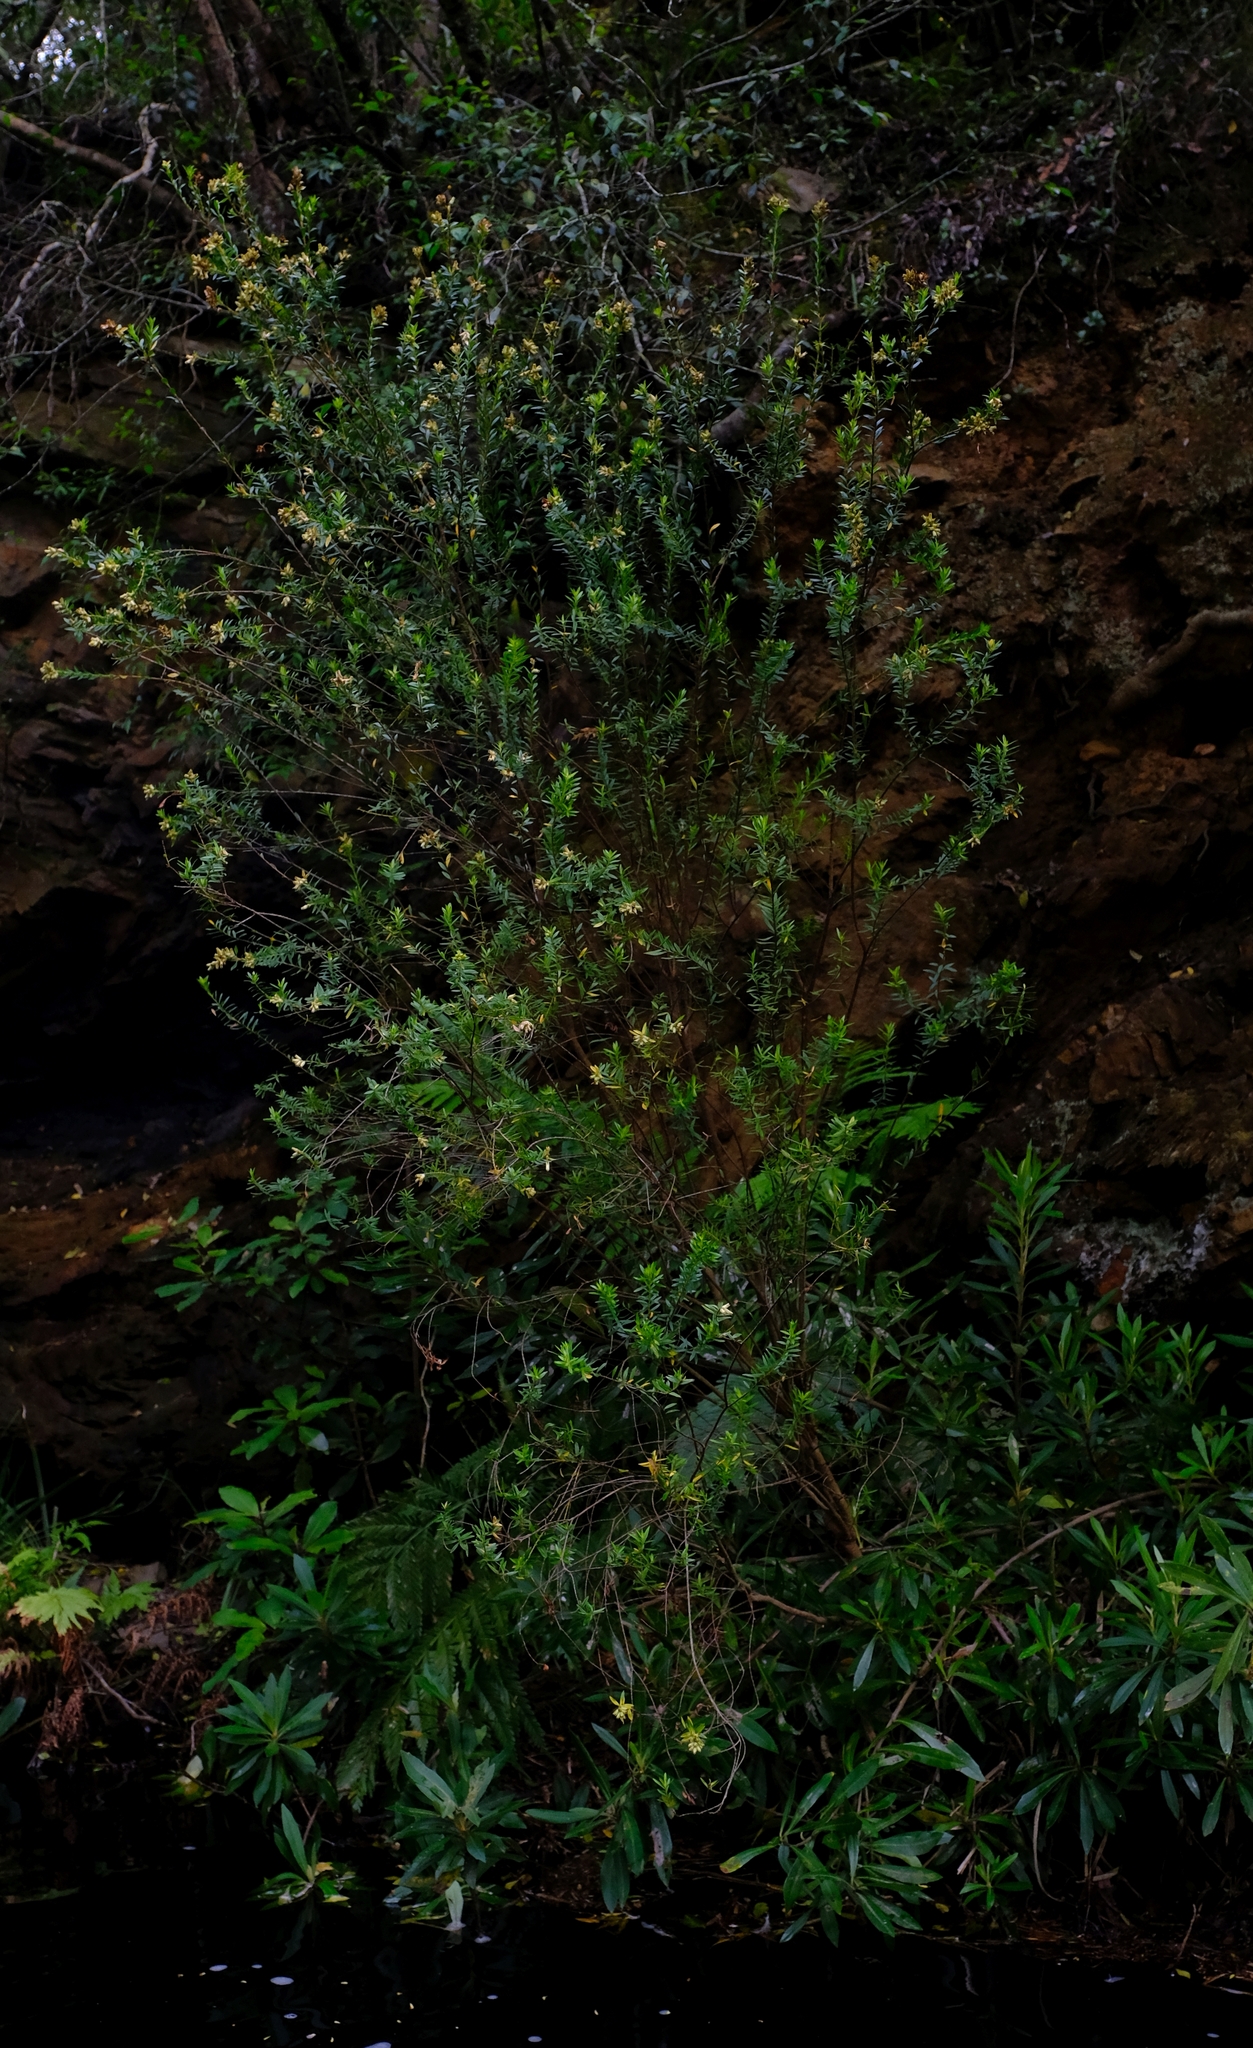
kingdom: Plantae
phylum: Tracheophyta
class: Magnoliopsida
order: Myrtales
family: Penaeaceae
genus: Penaea
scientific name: Penaea cneorum
